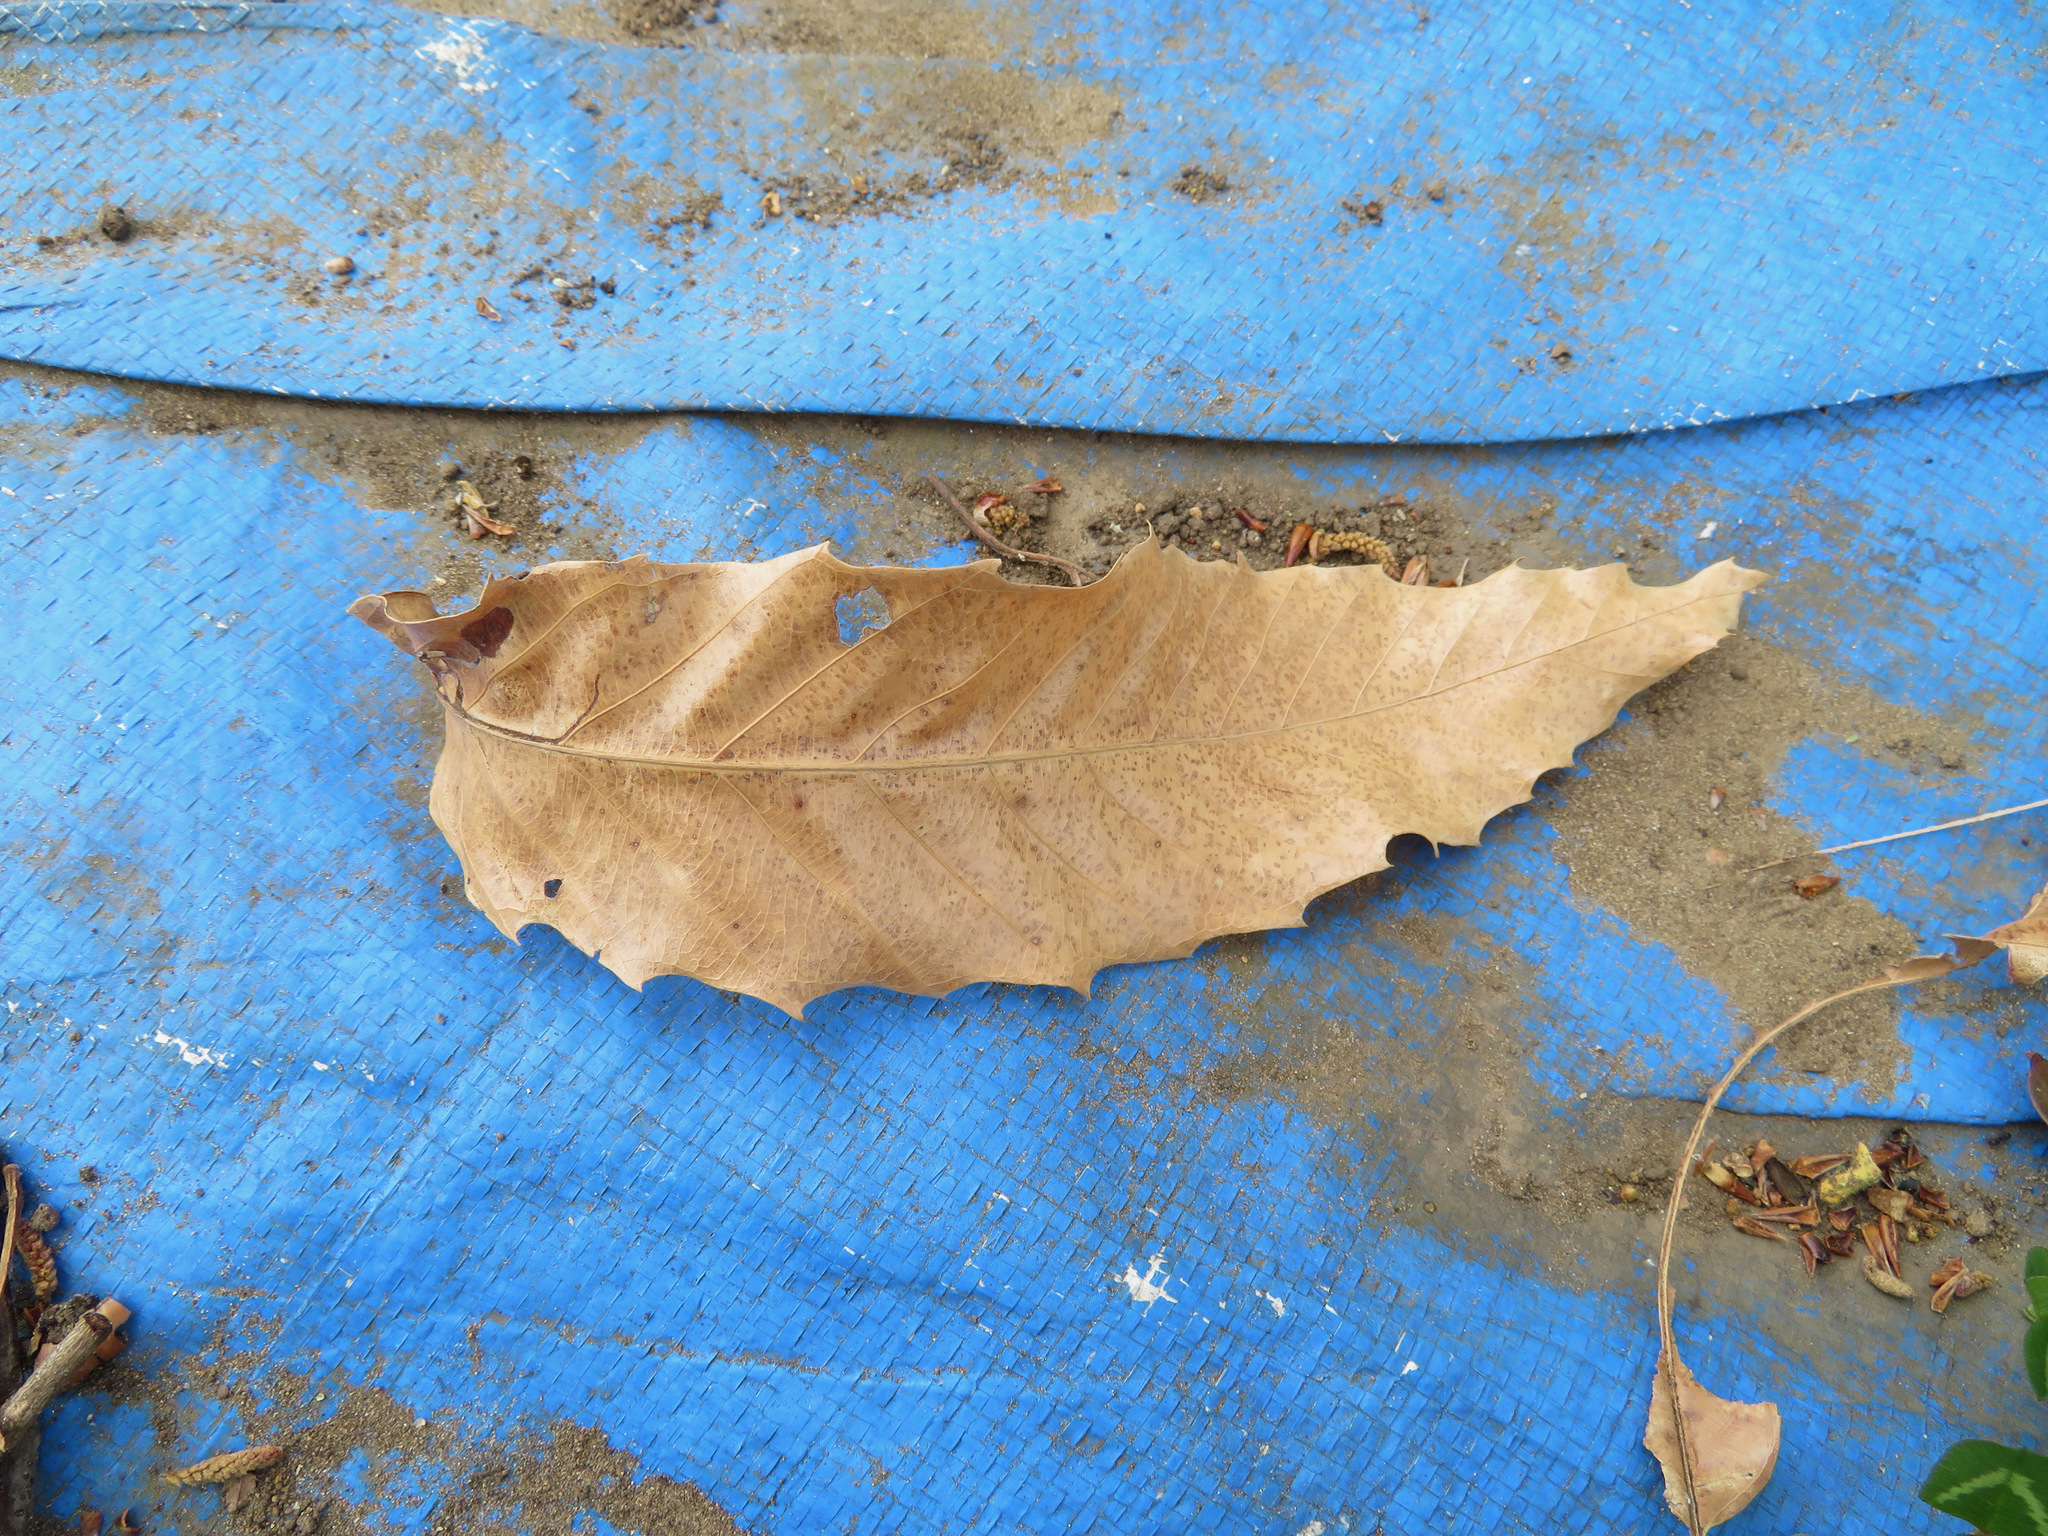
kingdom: Plantae
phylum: Tracheophyta
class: Magnoliopsida
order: Fagales
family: Fagaceae
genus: Quercus
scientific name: Quercus acutissima
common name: Sawtooth oak
